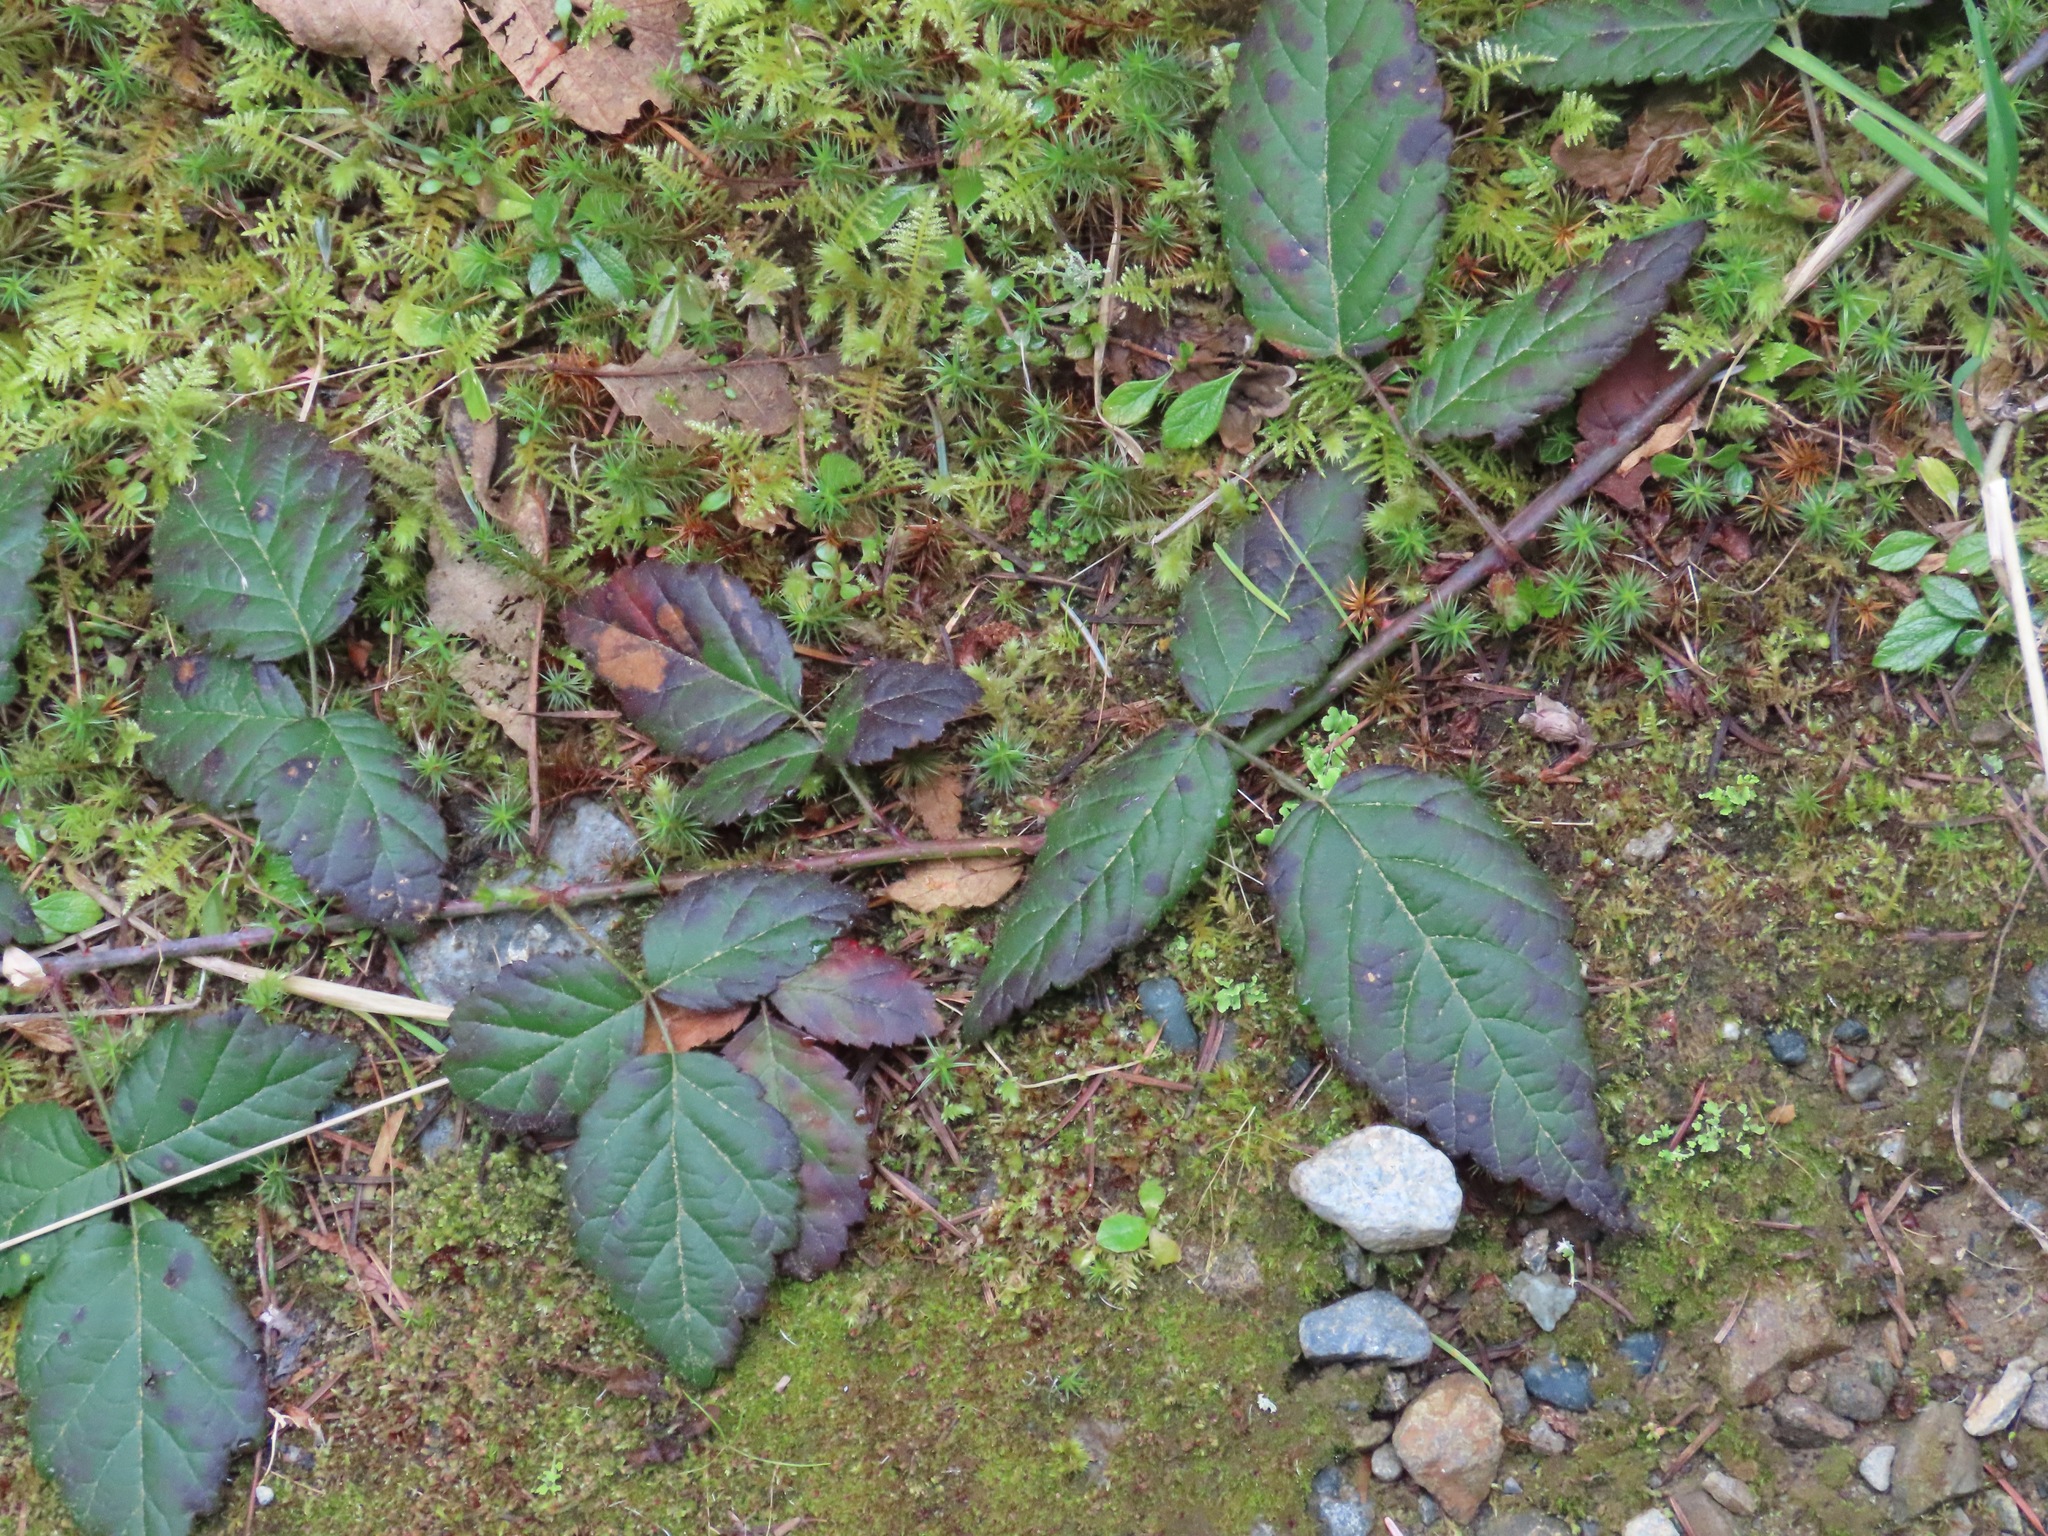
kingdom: Plantae
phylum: Tracheophyta
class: Magnoliopsida
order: Rosales
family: Rosaceae
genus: Rubus
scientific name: Rubus ursinus
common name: Pacific blackberry
